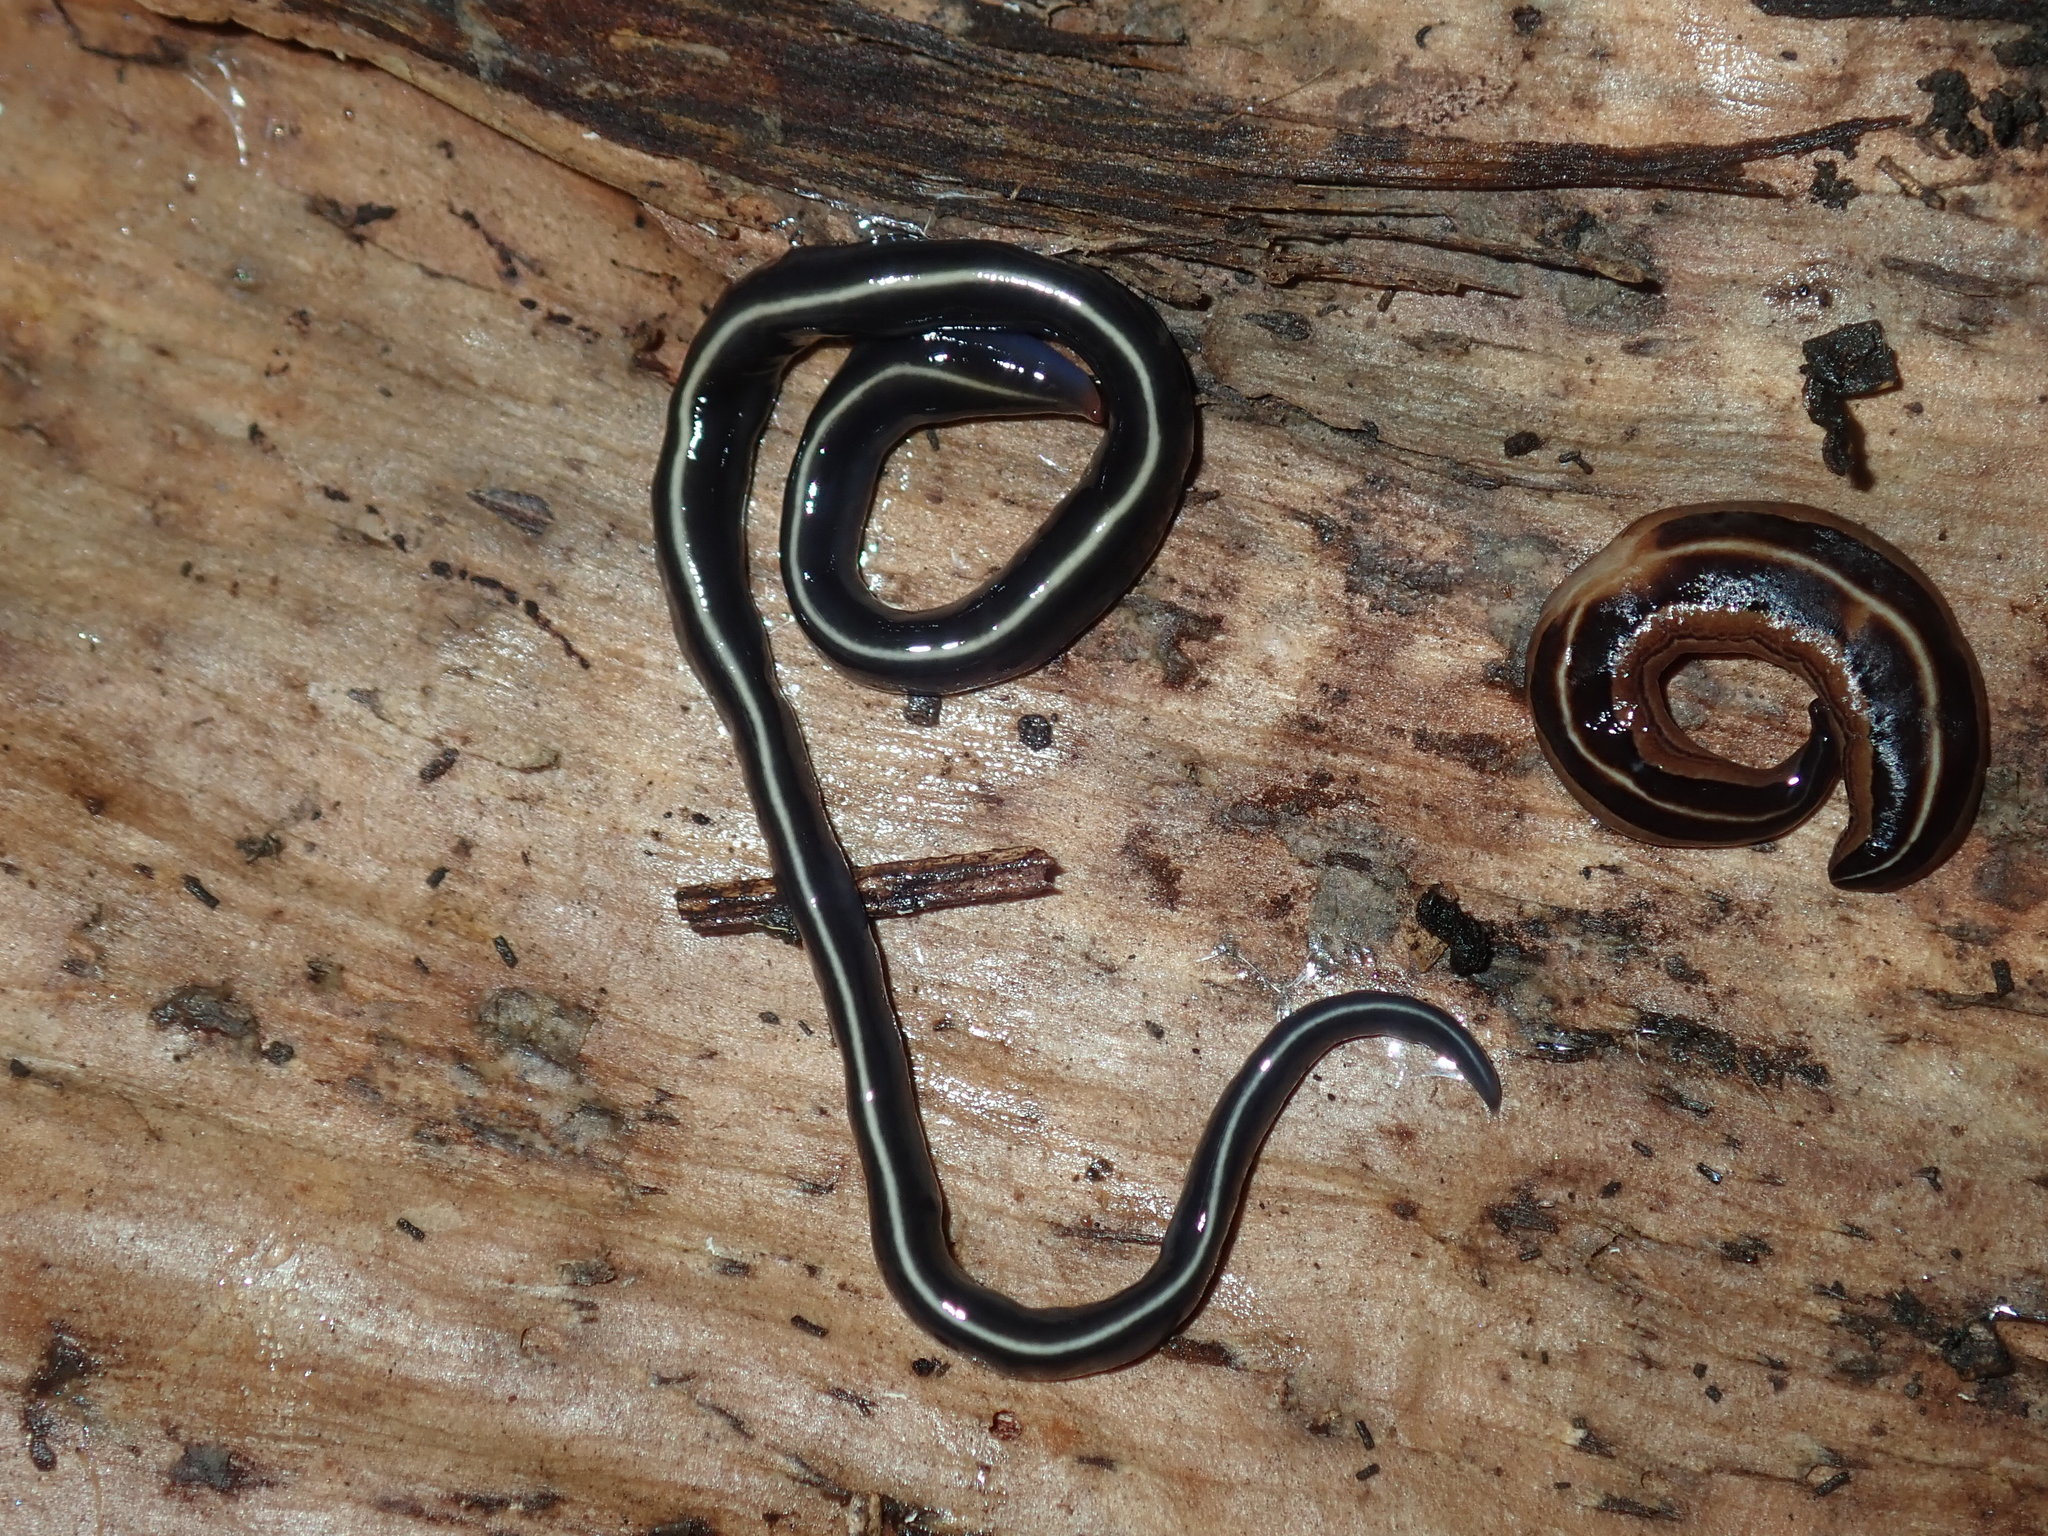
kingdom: Animalia
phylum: Platyhelminthes
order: Tricladida
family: Geoplanidae
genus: Caenoplana
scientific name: Caenoplana coerulea
